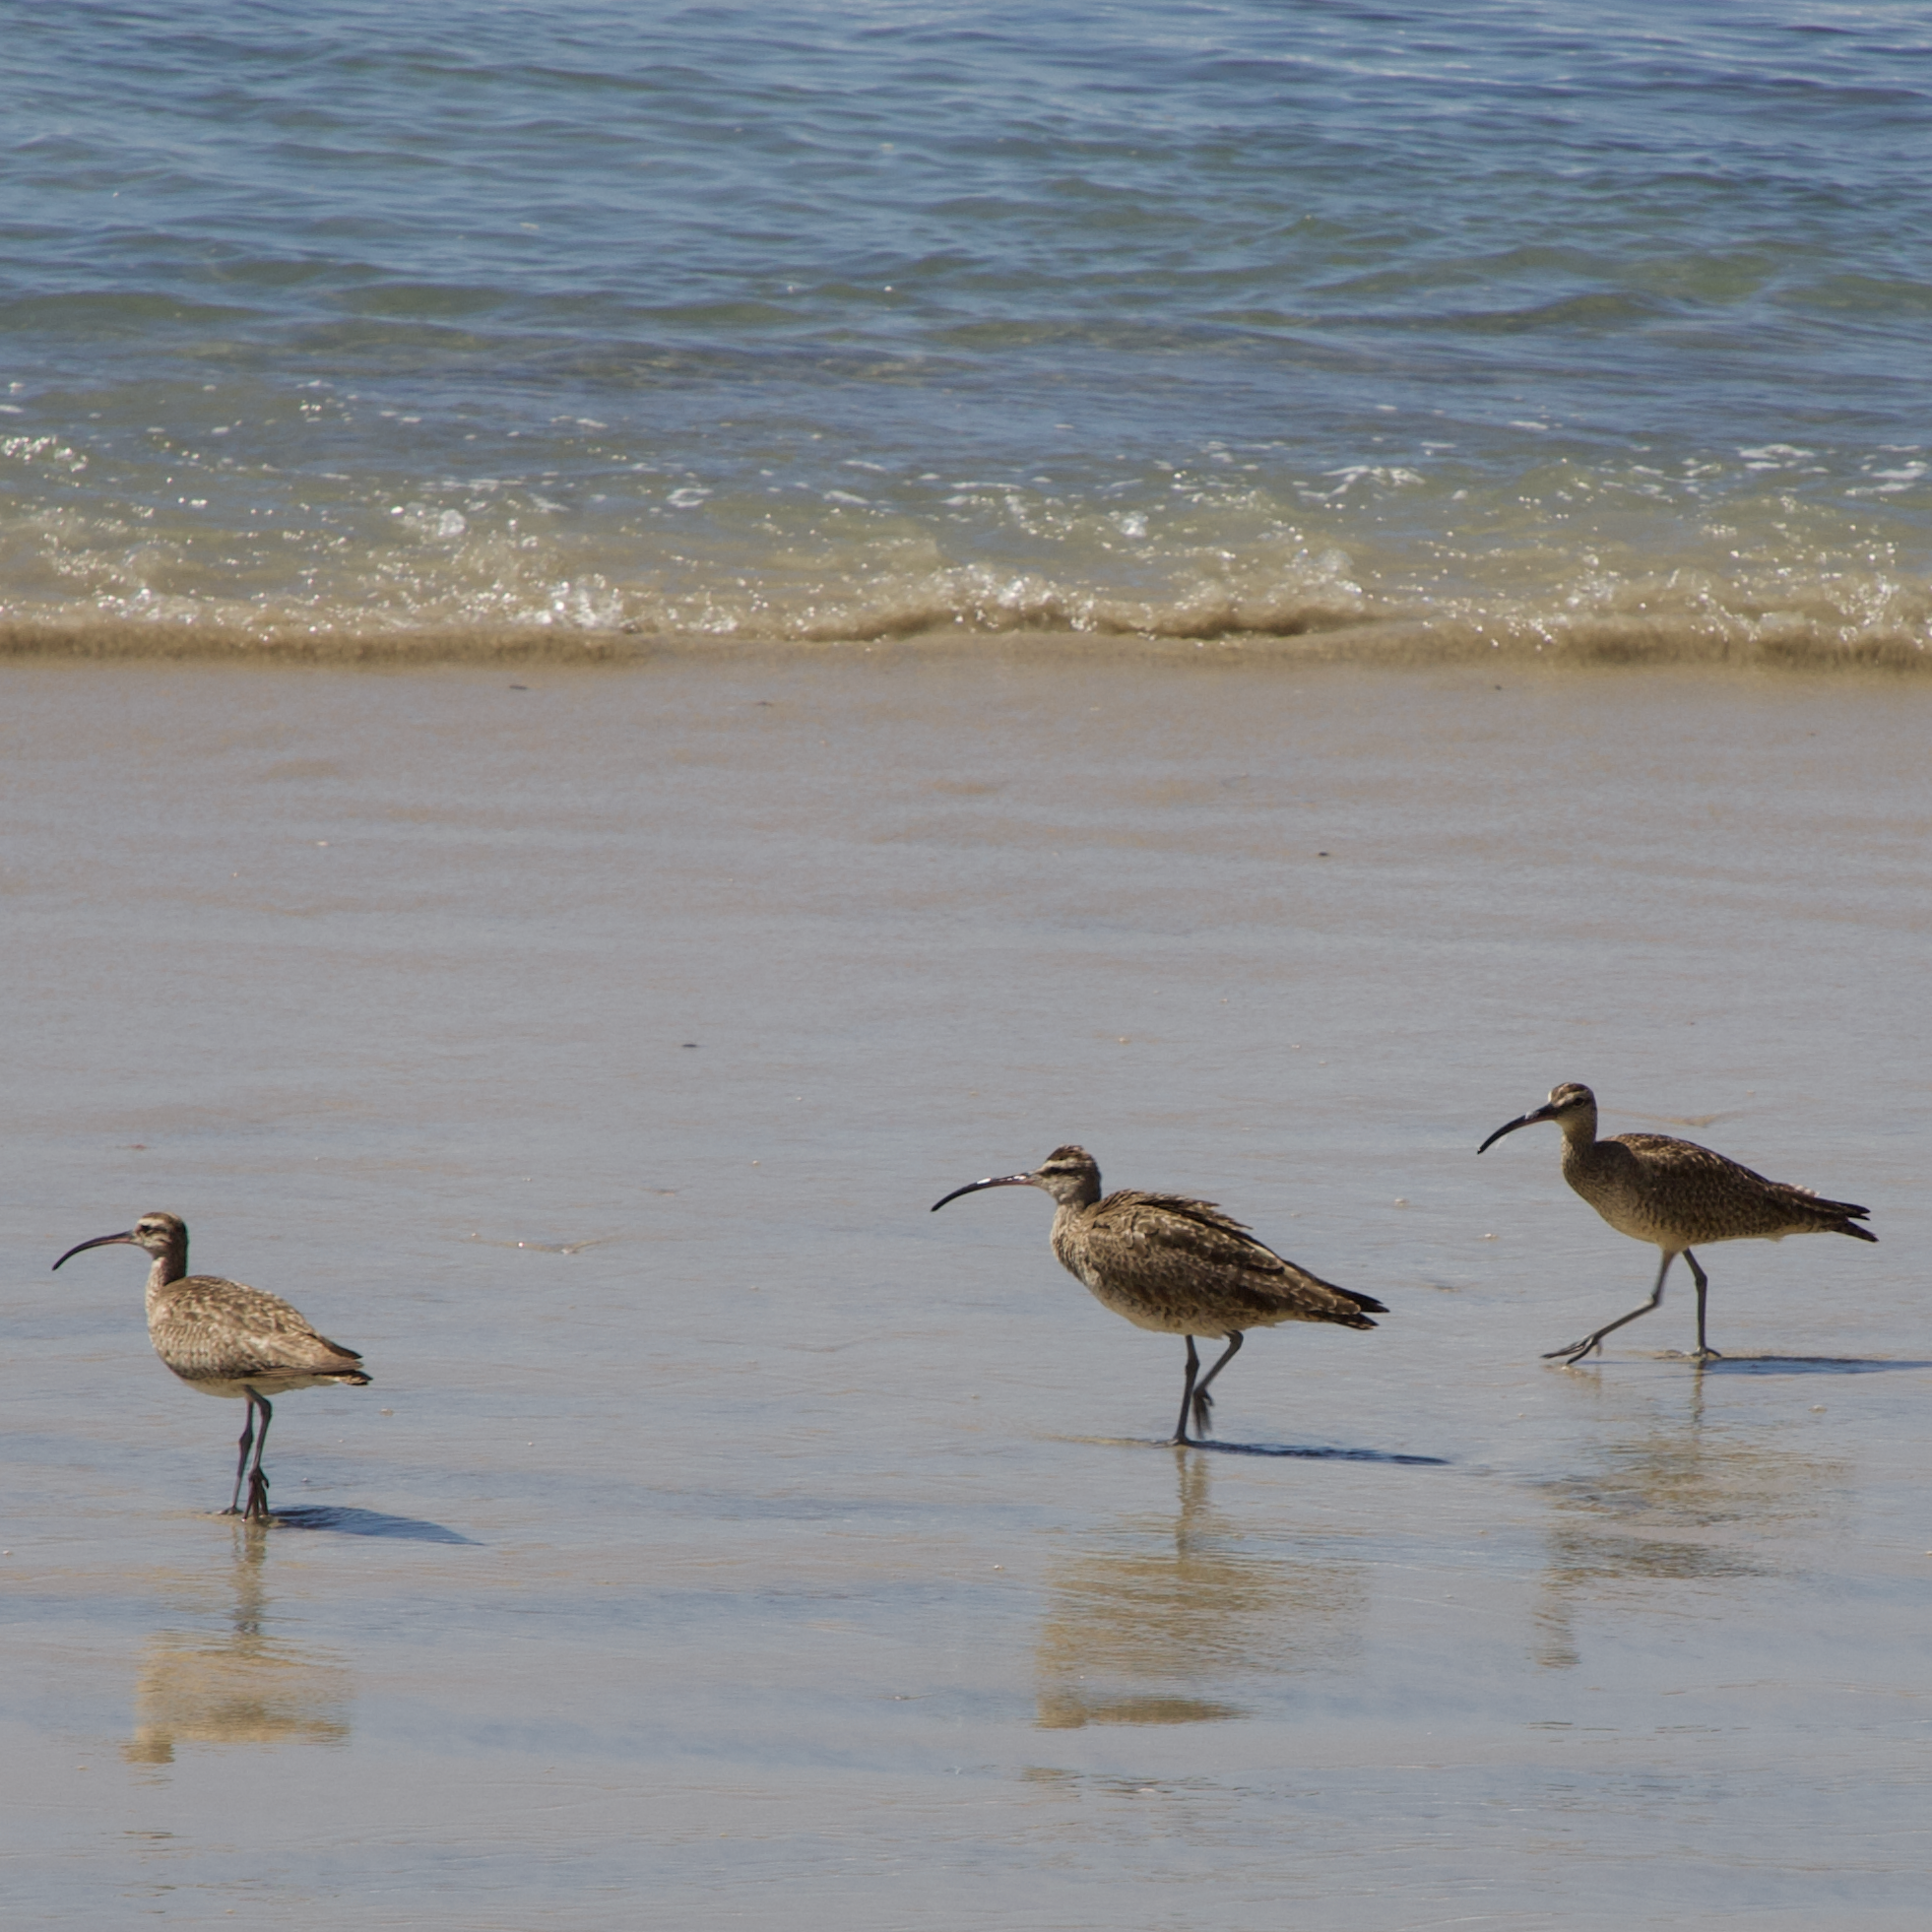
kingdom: Animalia
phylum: Chordata
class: Aves
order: Charadriiformes
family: Scolopacidae
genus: Numenius
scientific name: Numenius phaeopus
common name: Whimbrel
